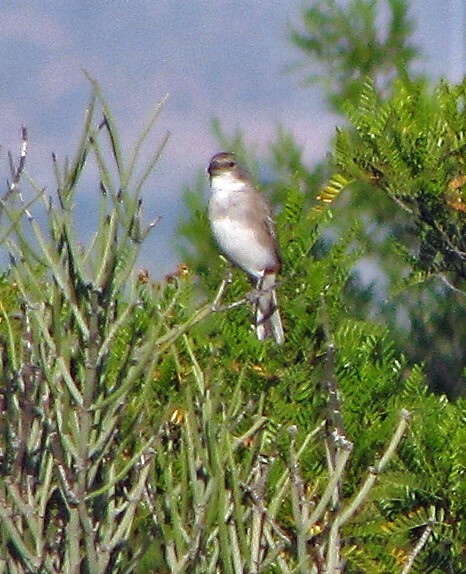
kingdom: Animalia
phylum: Chordata
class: Aves
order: Passeriformes
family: Thraupidae
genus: Diuca
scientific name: Diuca diuca
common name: Common diuca finch
